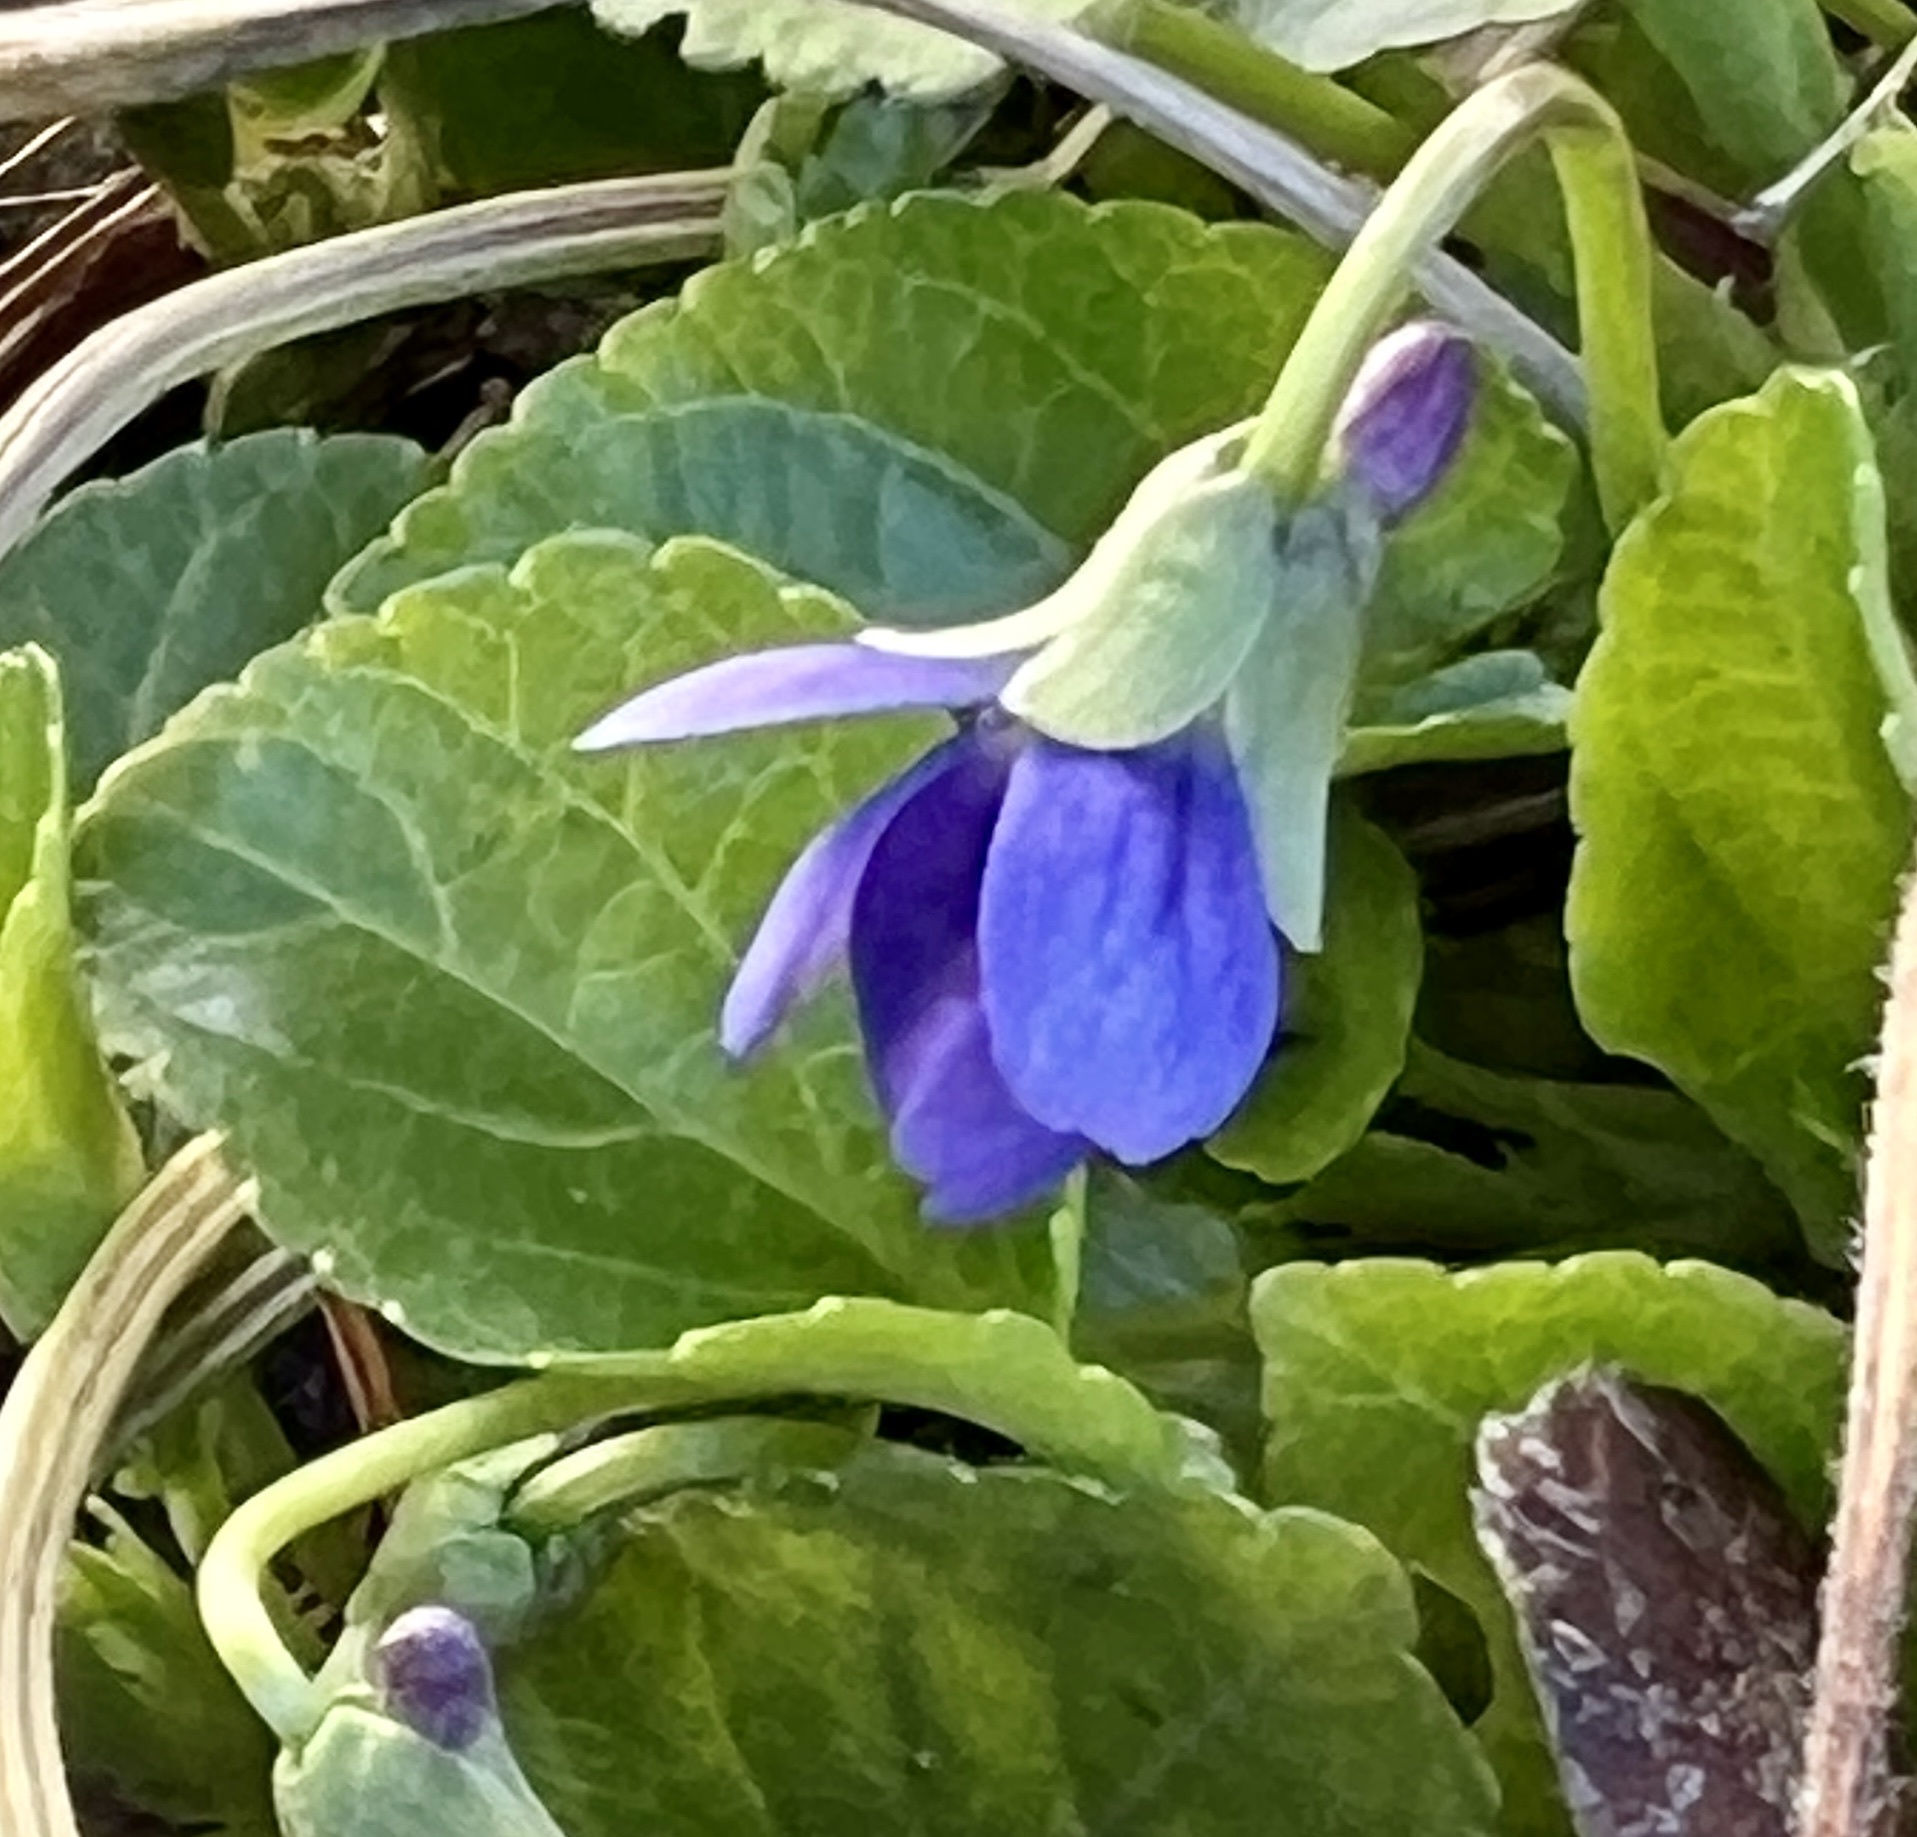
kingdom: Plantae
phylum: Tracheophyta
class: Magnoliopsida
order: Malpighiales
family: Violaceae
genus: Viola
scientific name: Viola odorata
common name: Sweet violet
